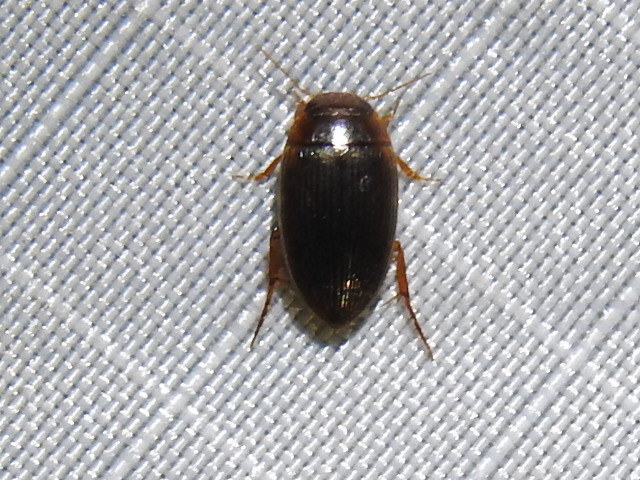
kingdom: Animalia
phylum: Arthropoda
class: Insecta
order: Coleoptera
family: Dytiscidae
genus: Copelatus
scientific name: Copelatus glyphicus
